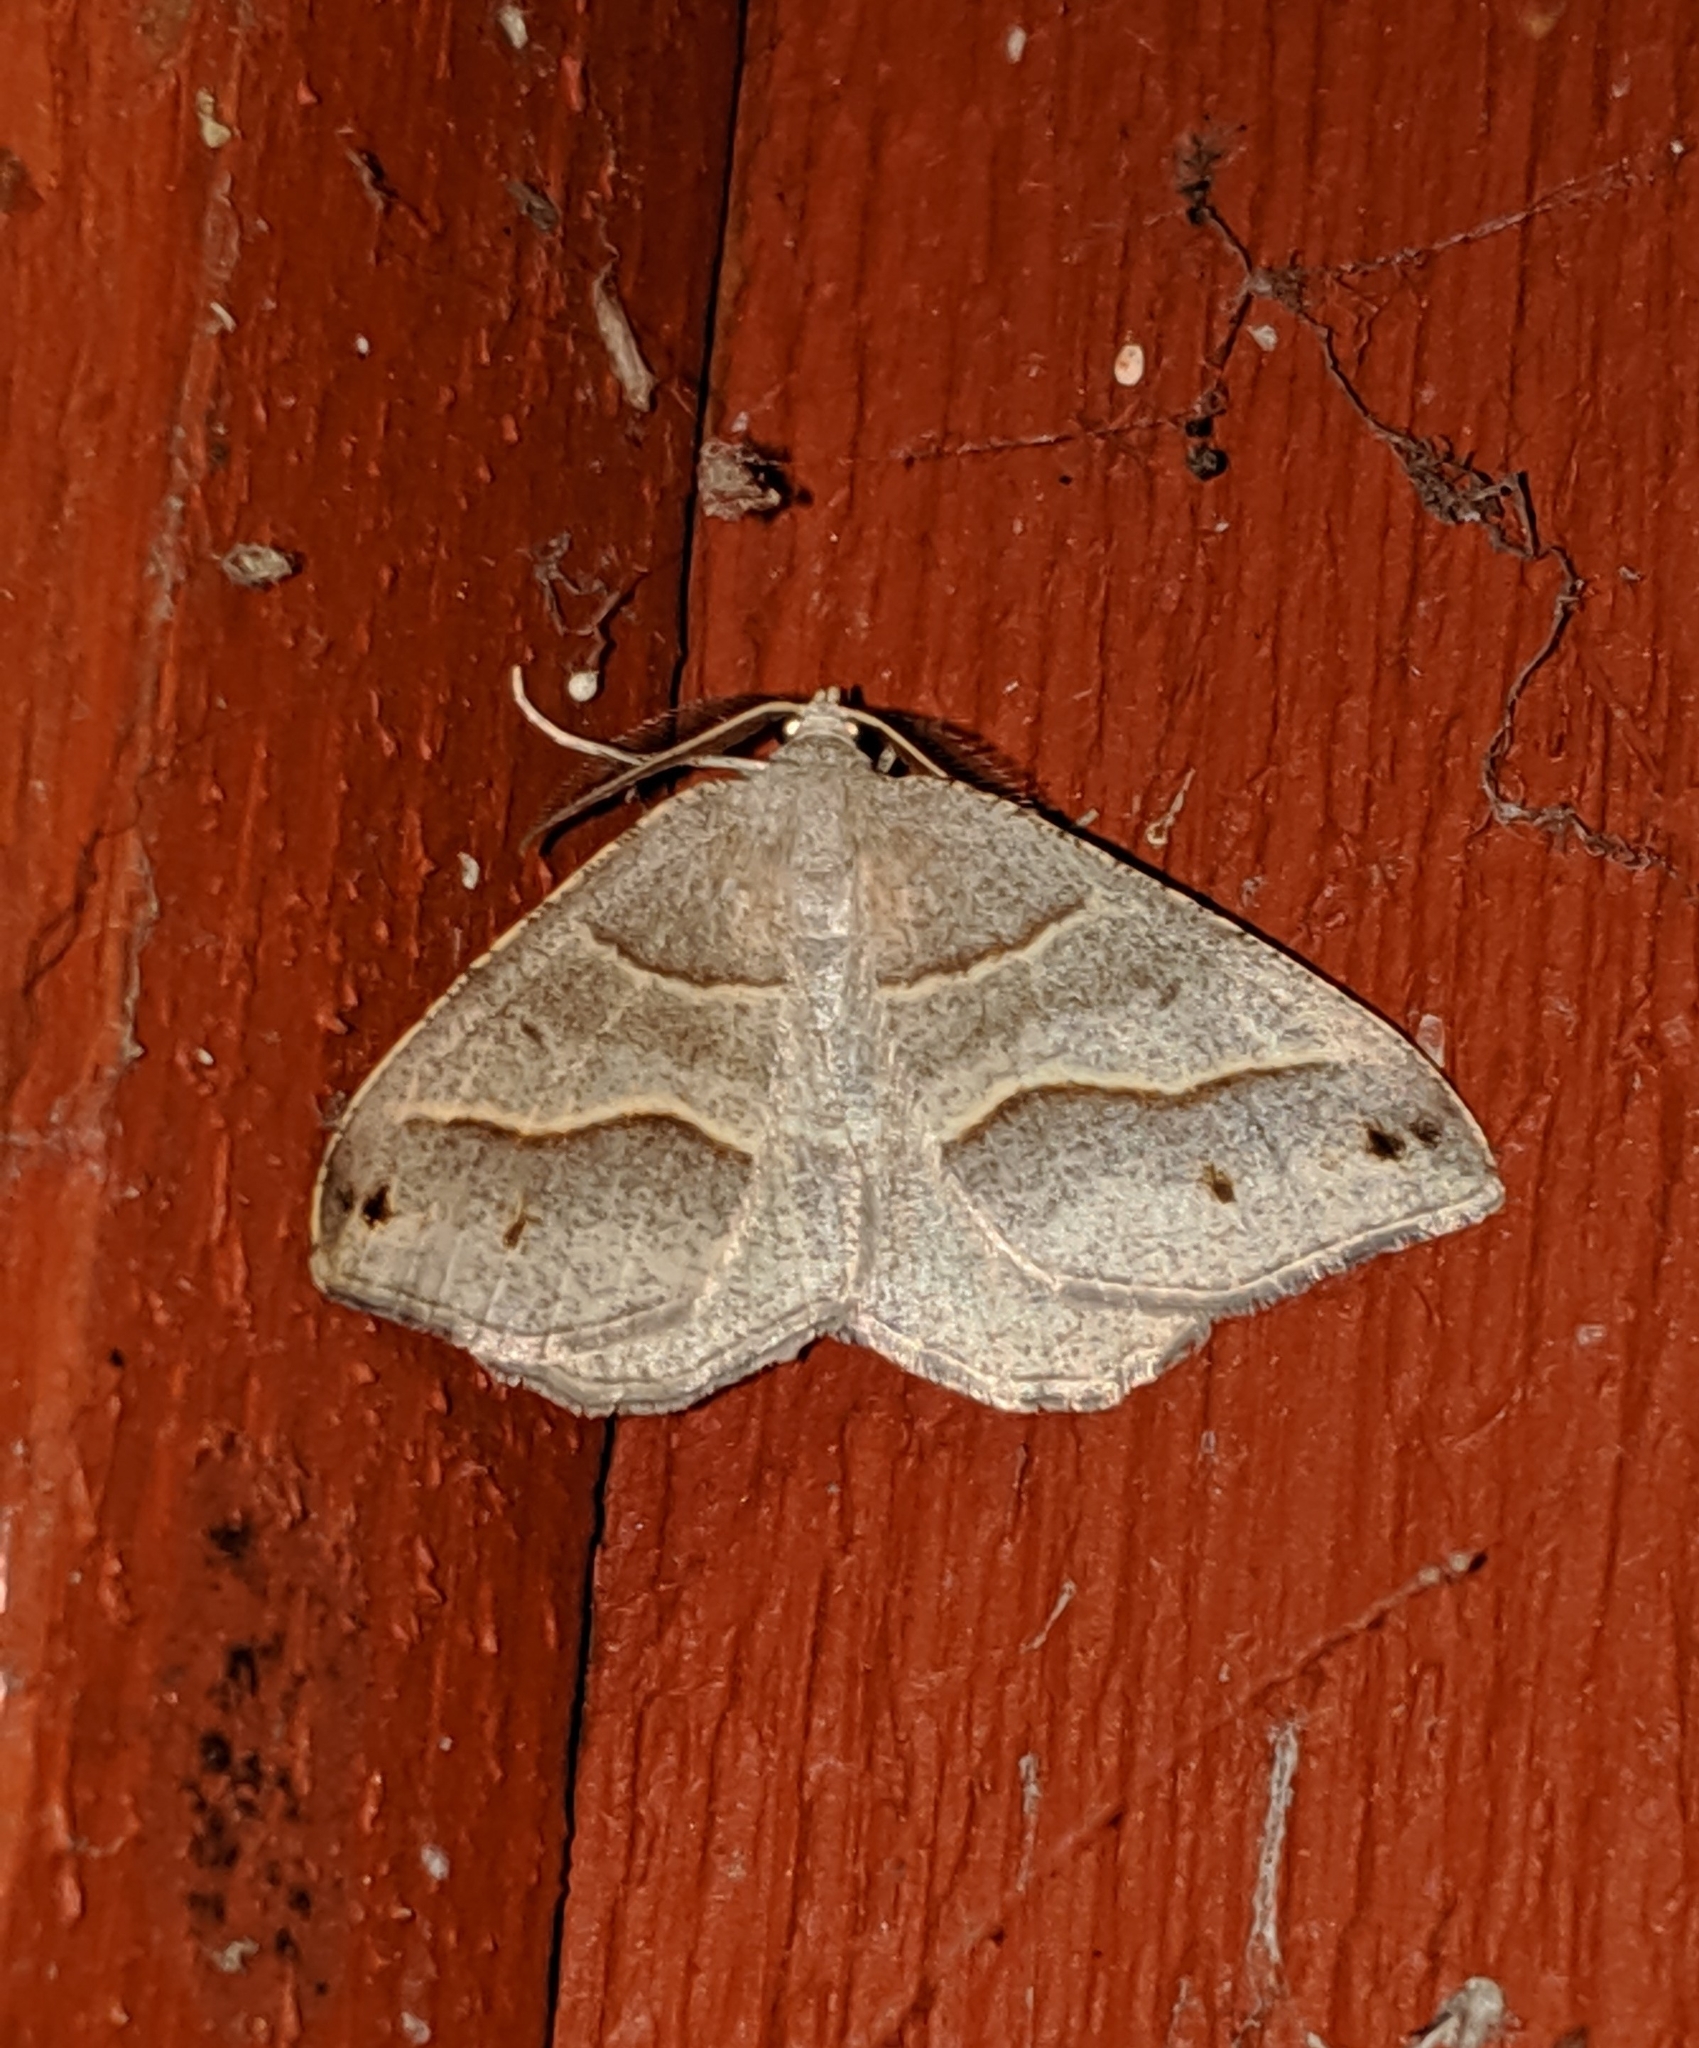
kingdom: Animalia
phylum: Arthropoda
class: Insecta
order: Lepidoptera
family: Geometridae
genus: Macaria
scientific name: Macaria lorquinaria
